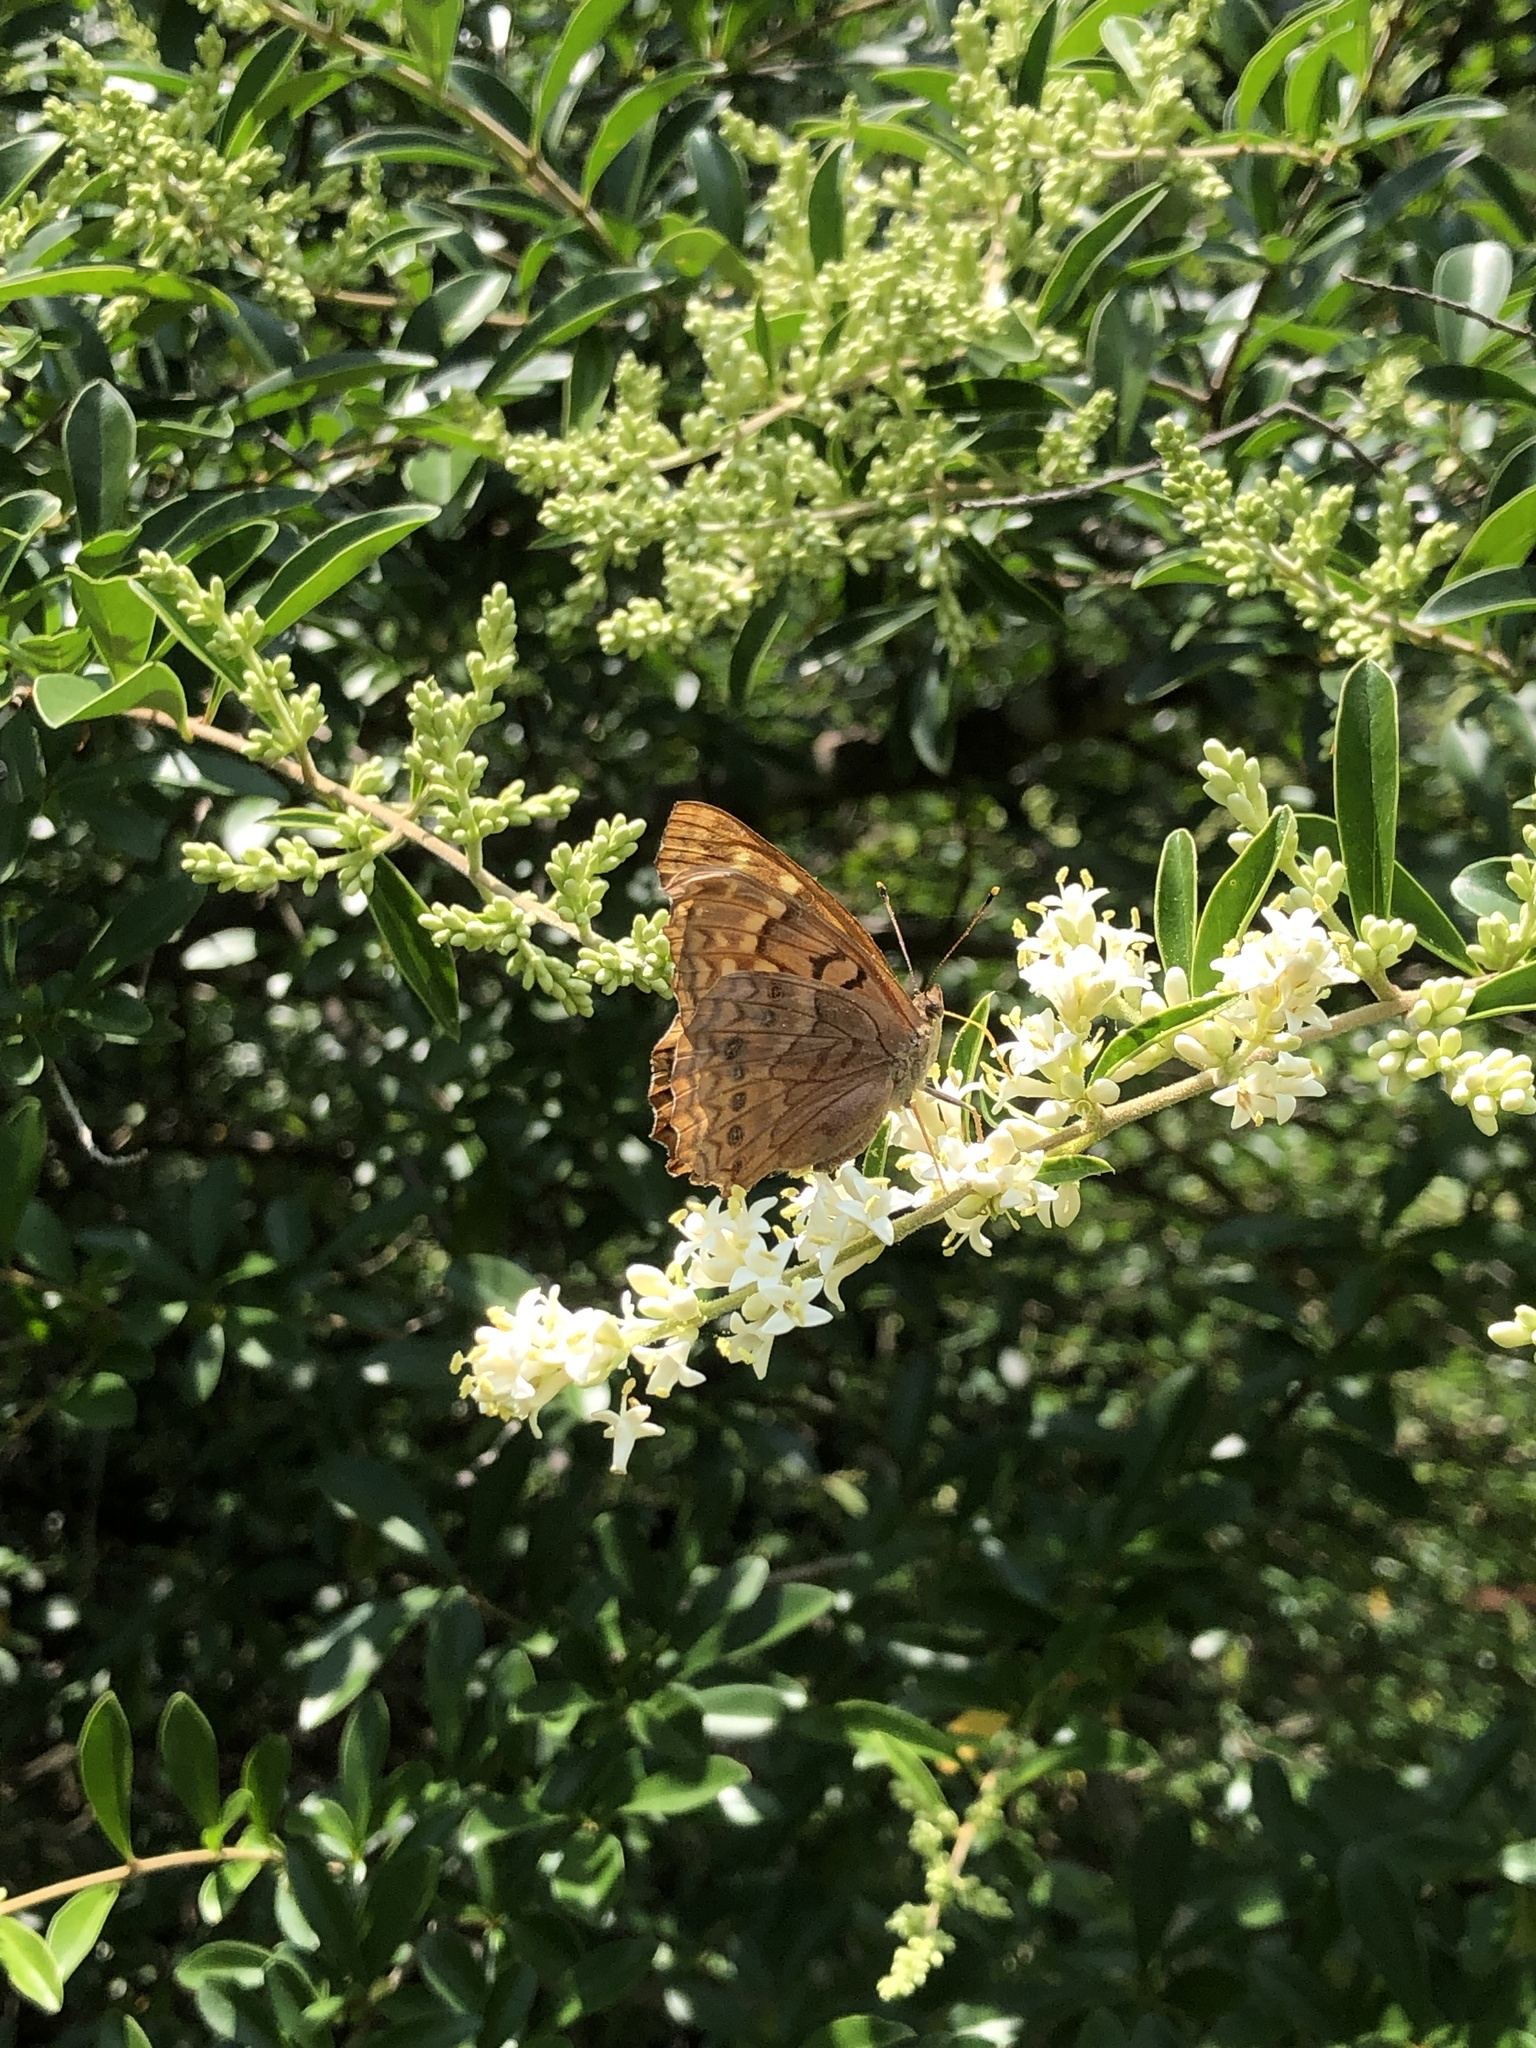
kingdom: Animalia
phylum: Arthropoda
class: Insecta
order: Lepidoptera
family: Nymphalidae
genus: Asterocampa
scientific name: Asterocampa clyton
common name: Tawny emperor
